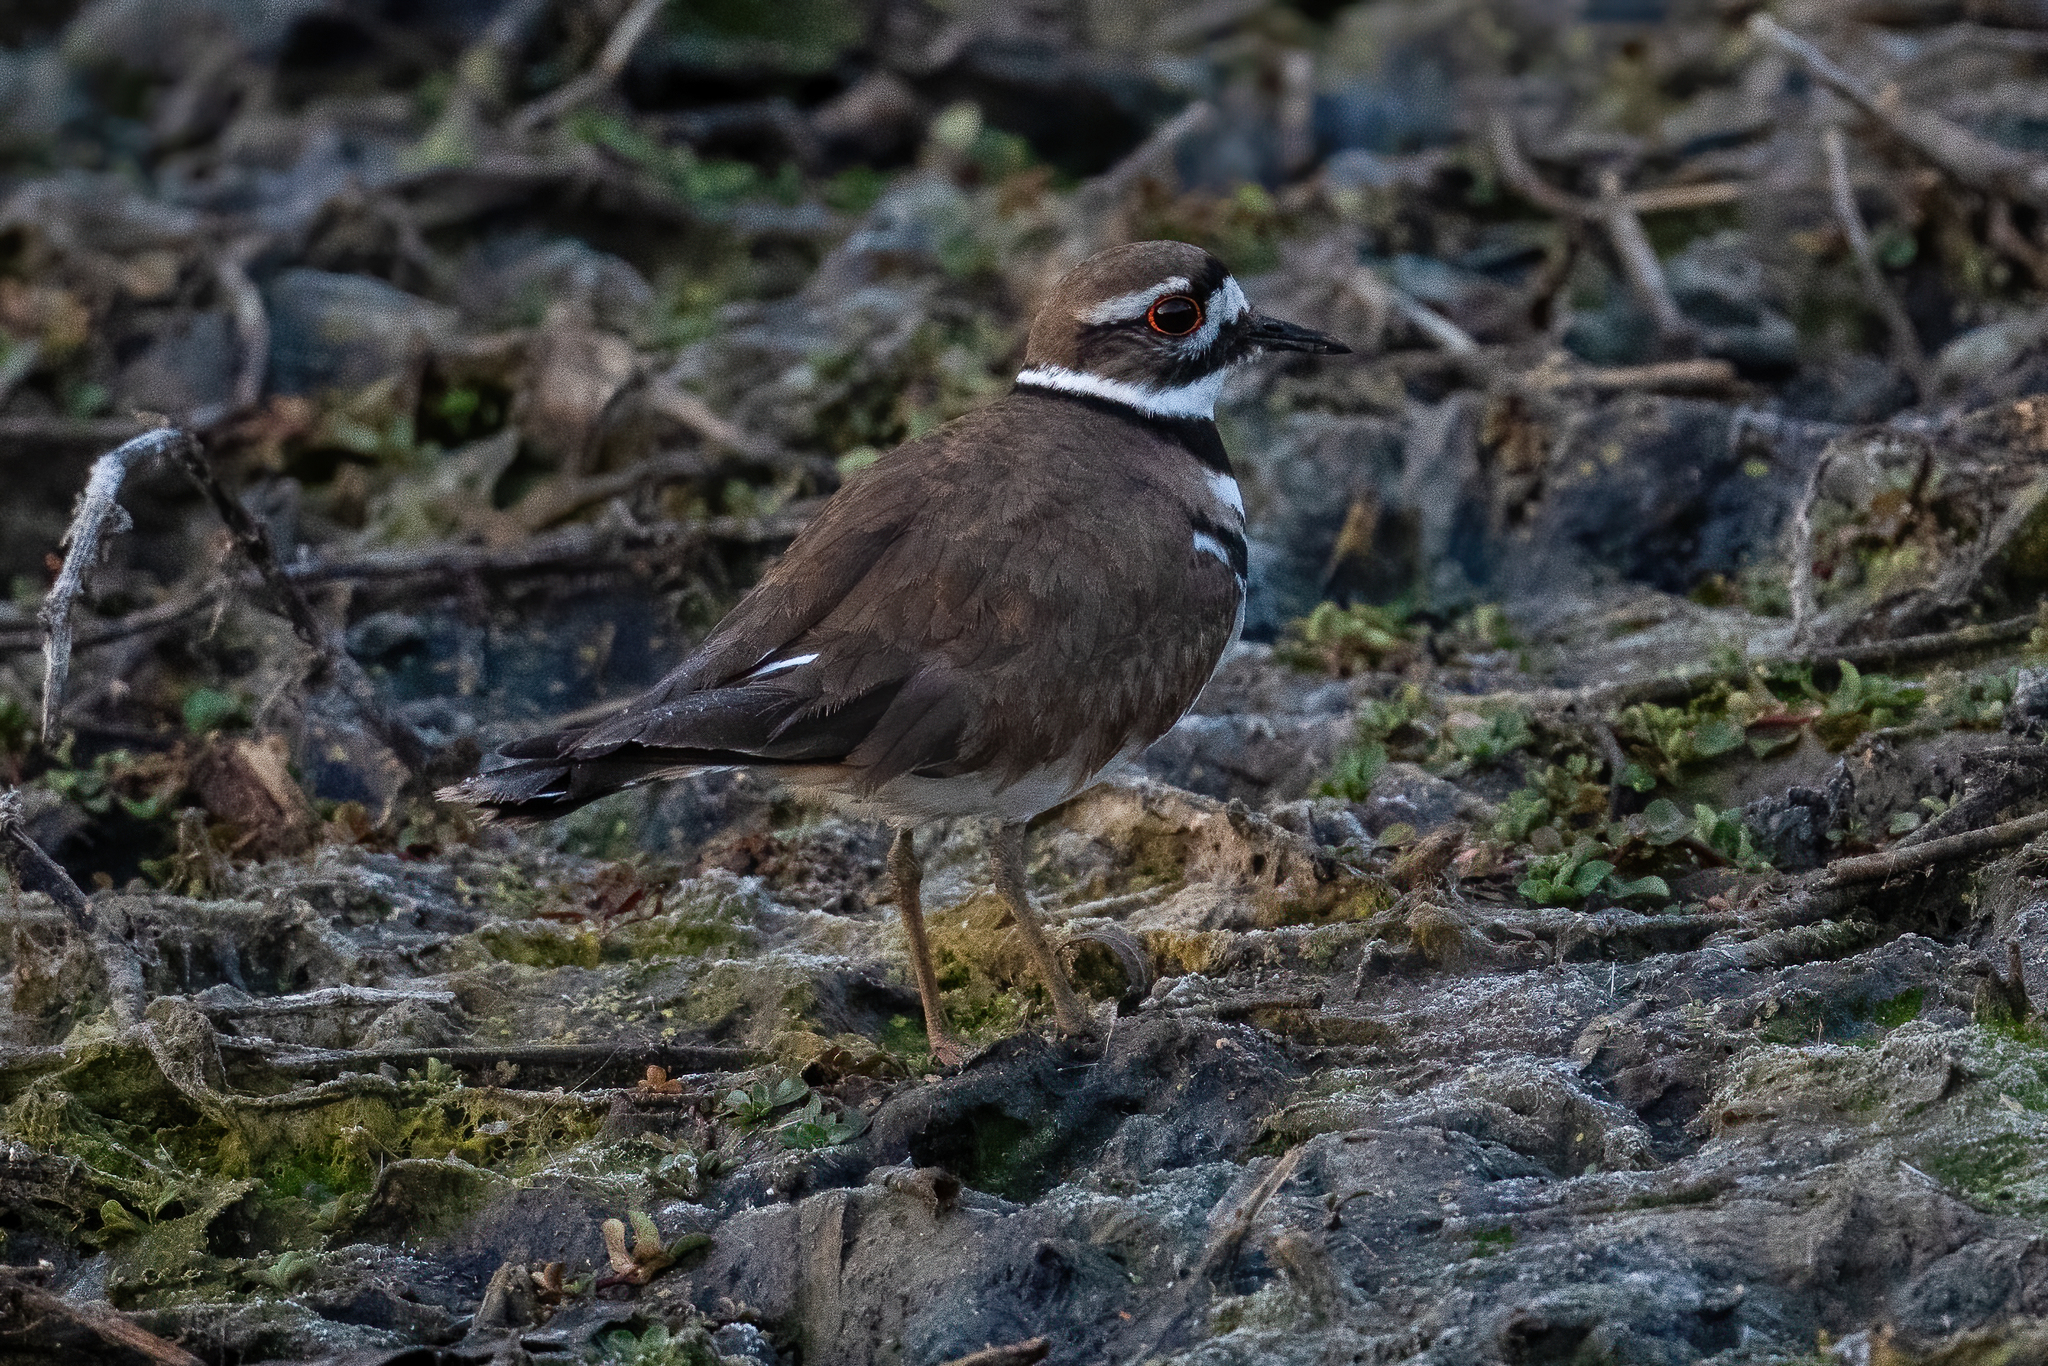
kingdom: Animalia
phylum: Chordata
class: Aves
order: Charadriiformes
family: Charadriidae
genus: Charadrius
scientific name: Charadrius vociferus
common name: Killdeer
